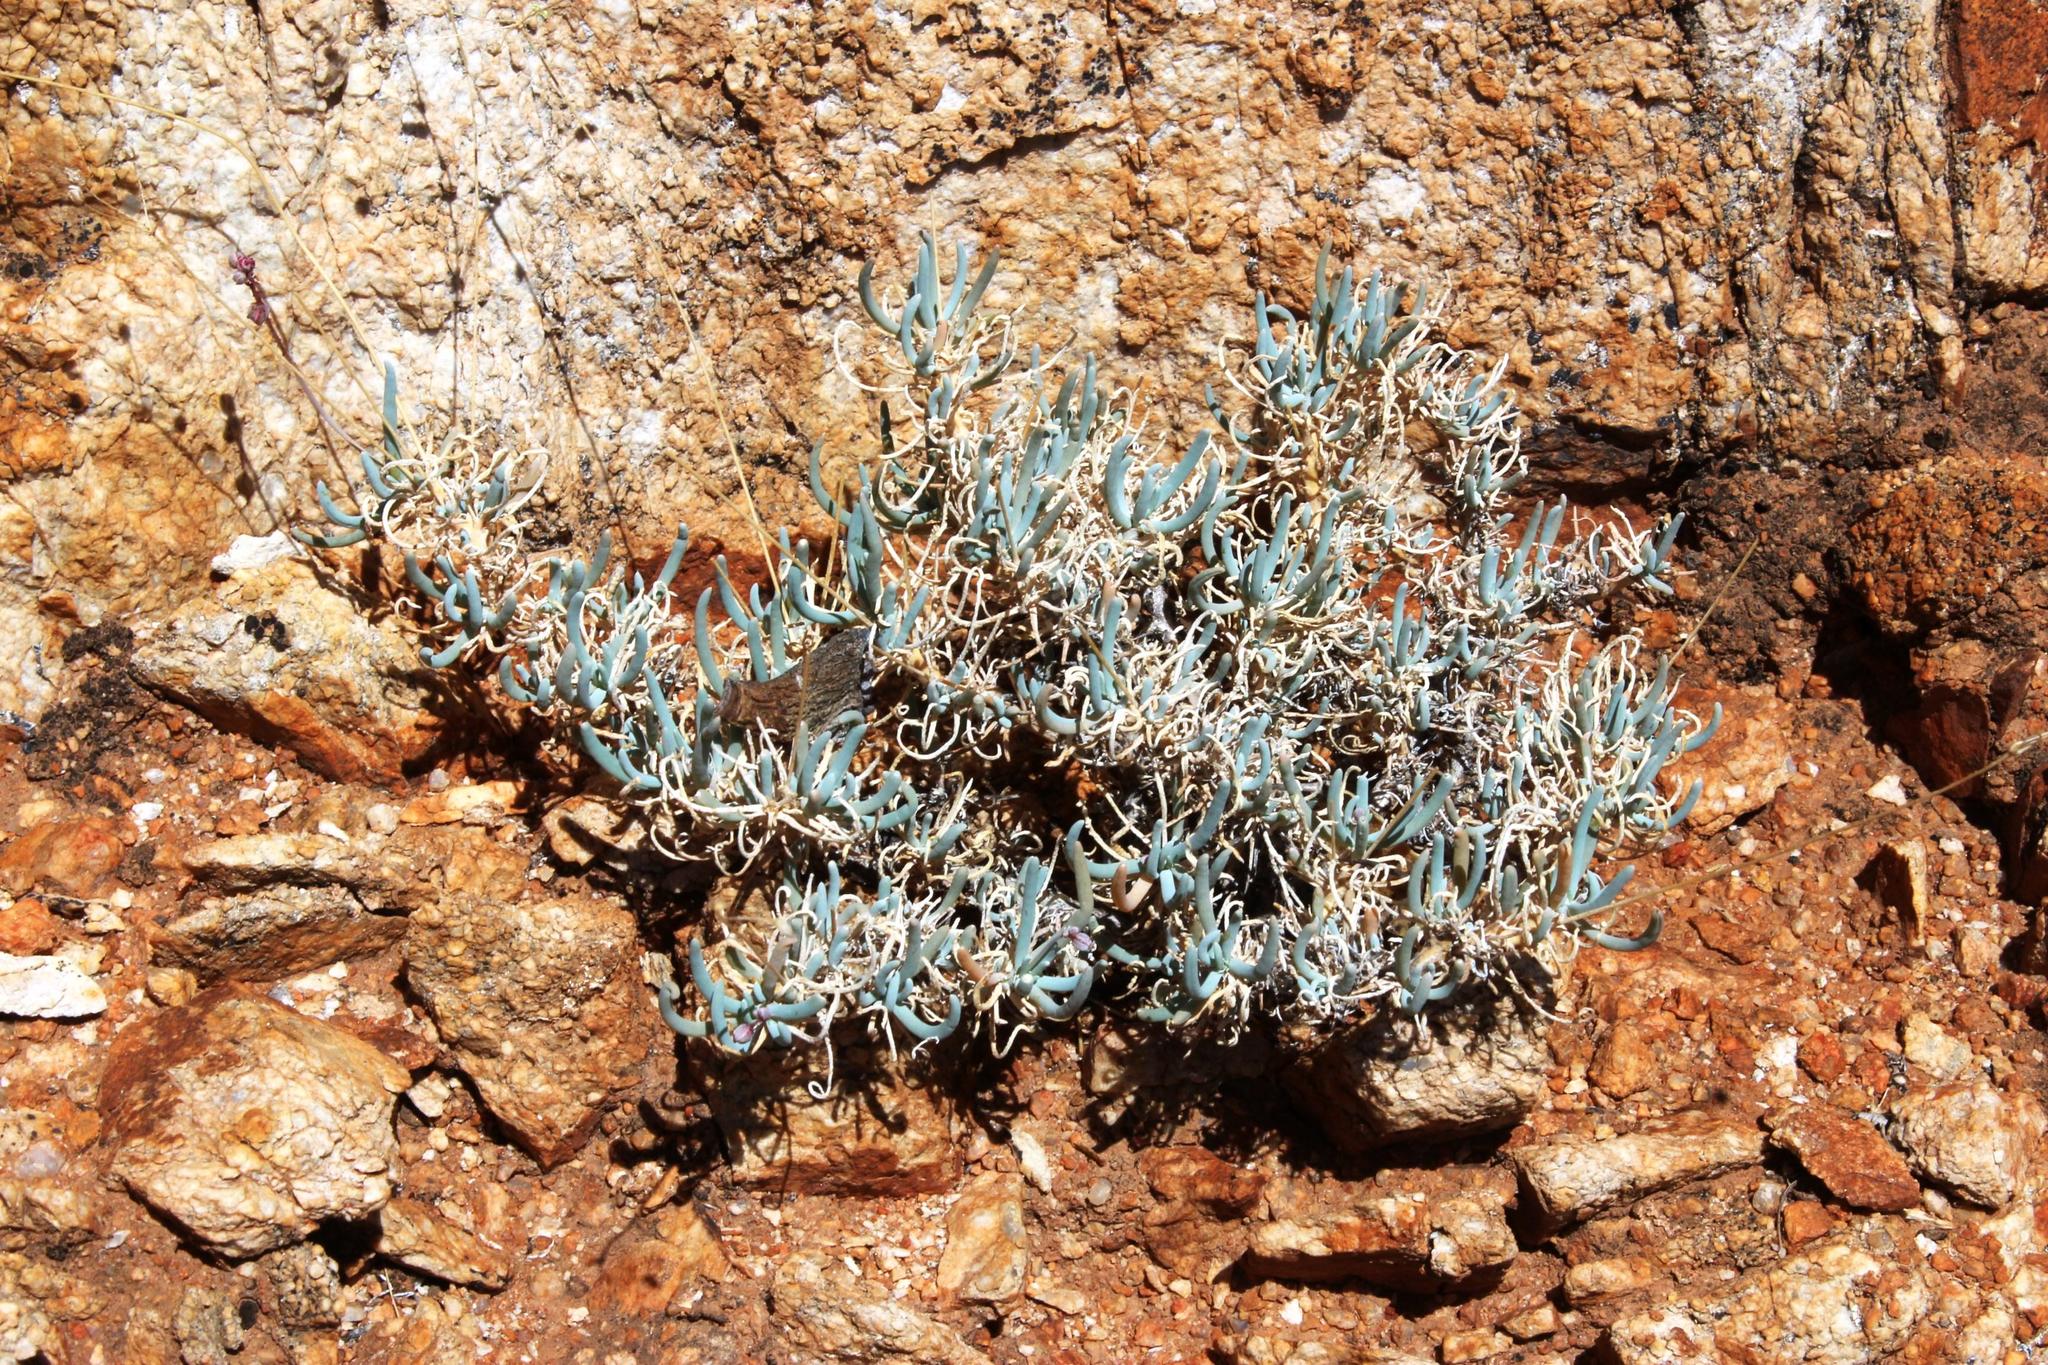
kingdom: Plantae
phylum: Tracheophyta
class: Magnoliopsida
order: Caryophyllales
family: Kewaceae
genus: Kewa
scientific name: Kewa salsoloides
